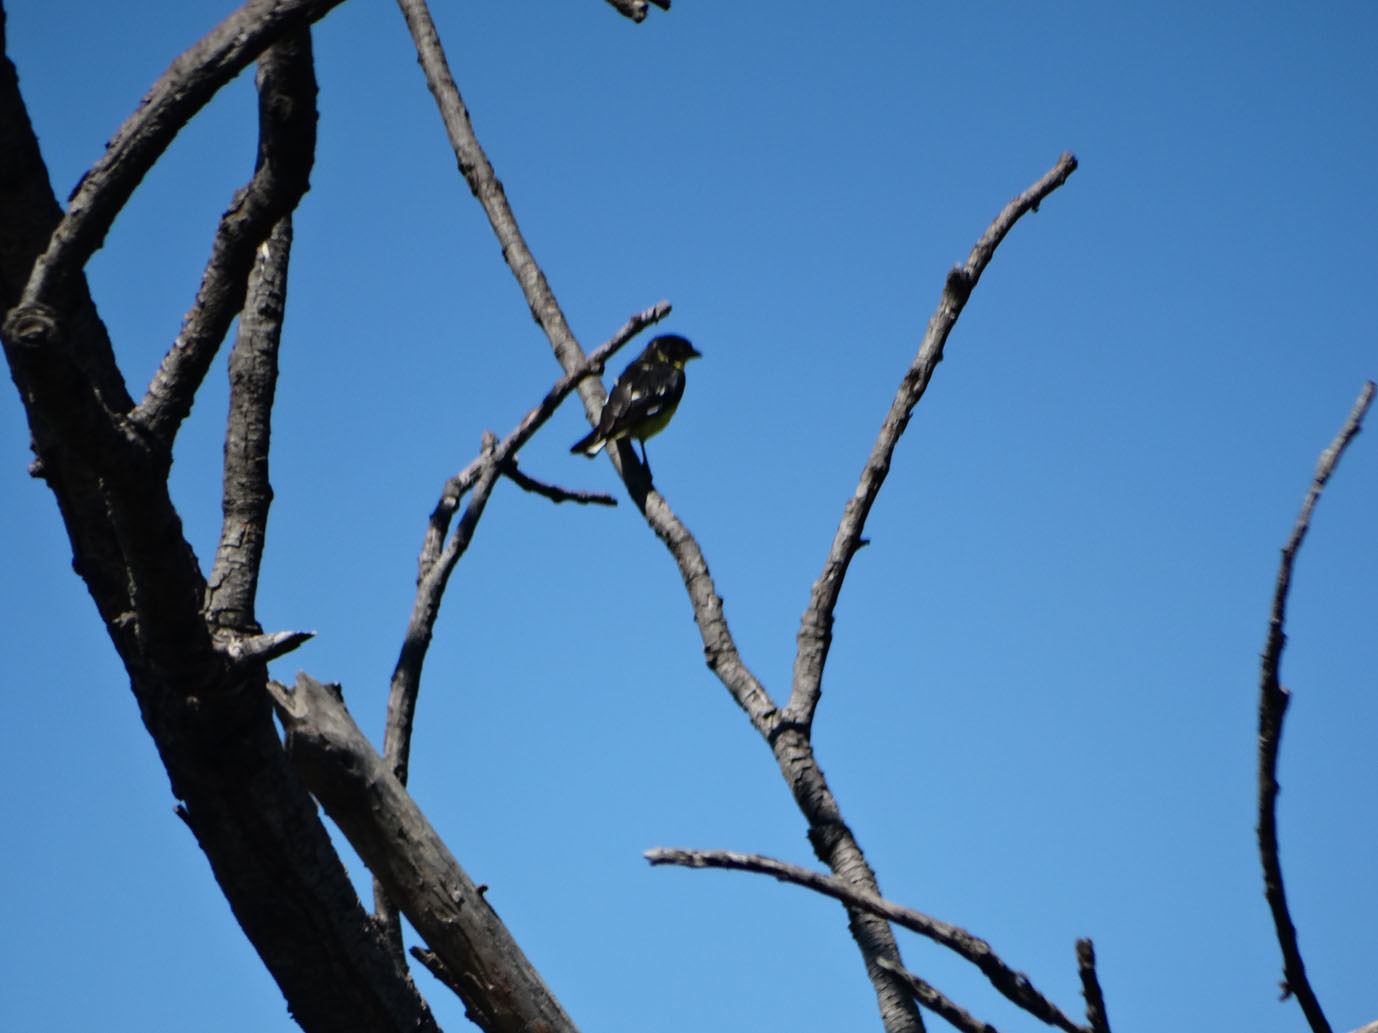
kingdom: Animalia
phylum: Chordata
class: Aves
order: Passeriformes
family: Fringillidae
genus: Spinus
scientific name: Spinus psaltria
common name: Lesser goldfinch
